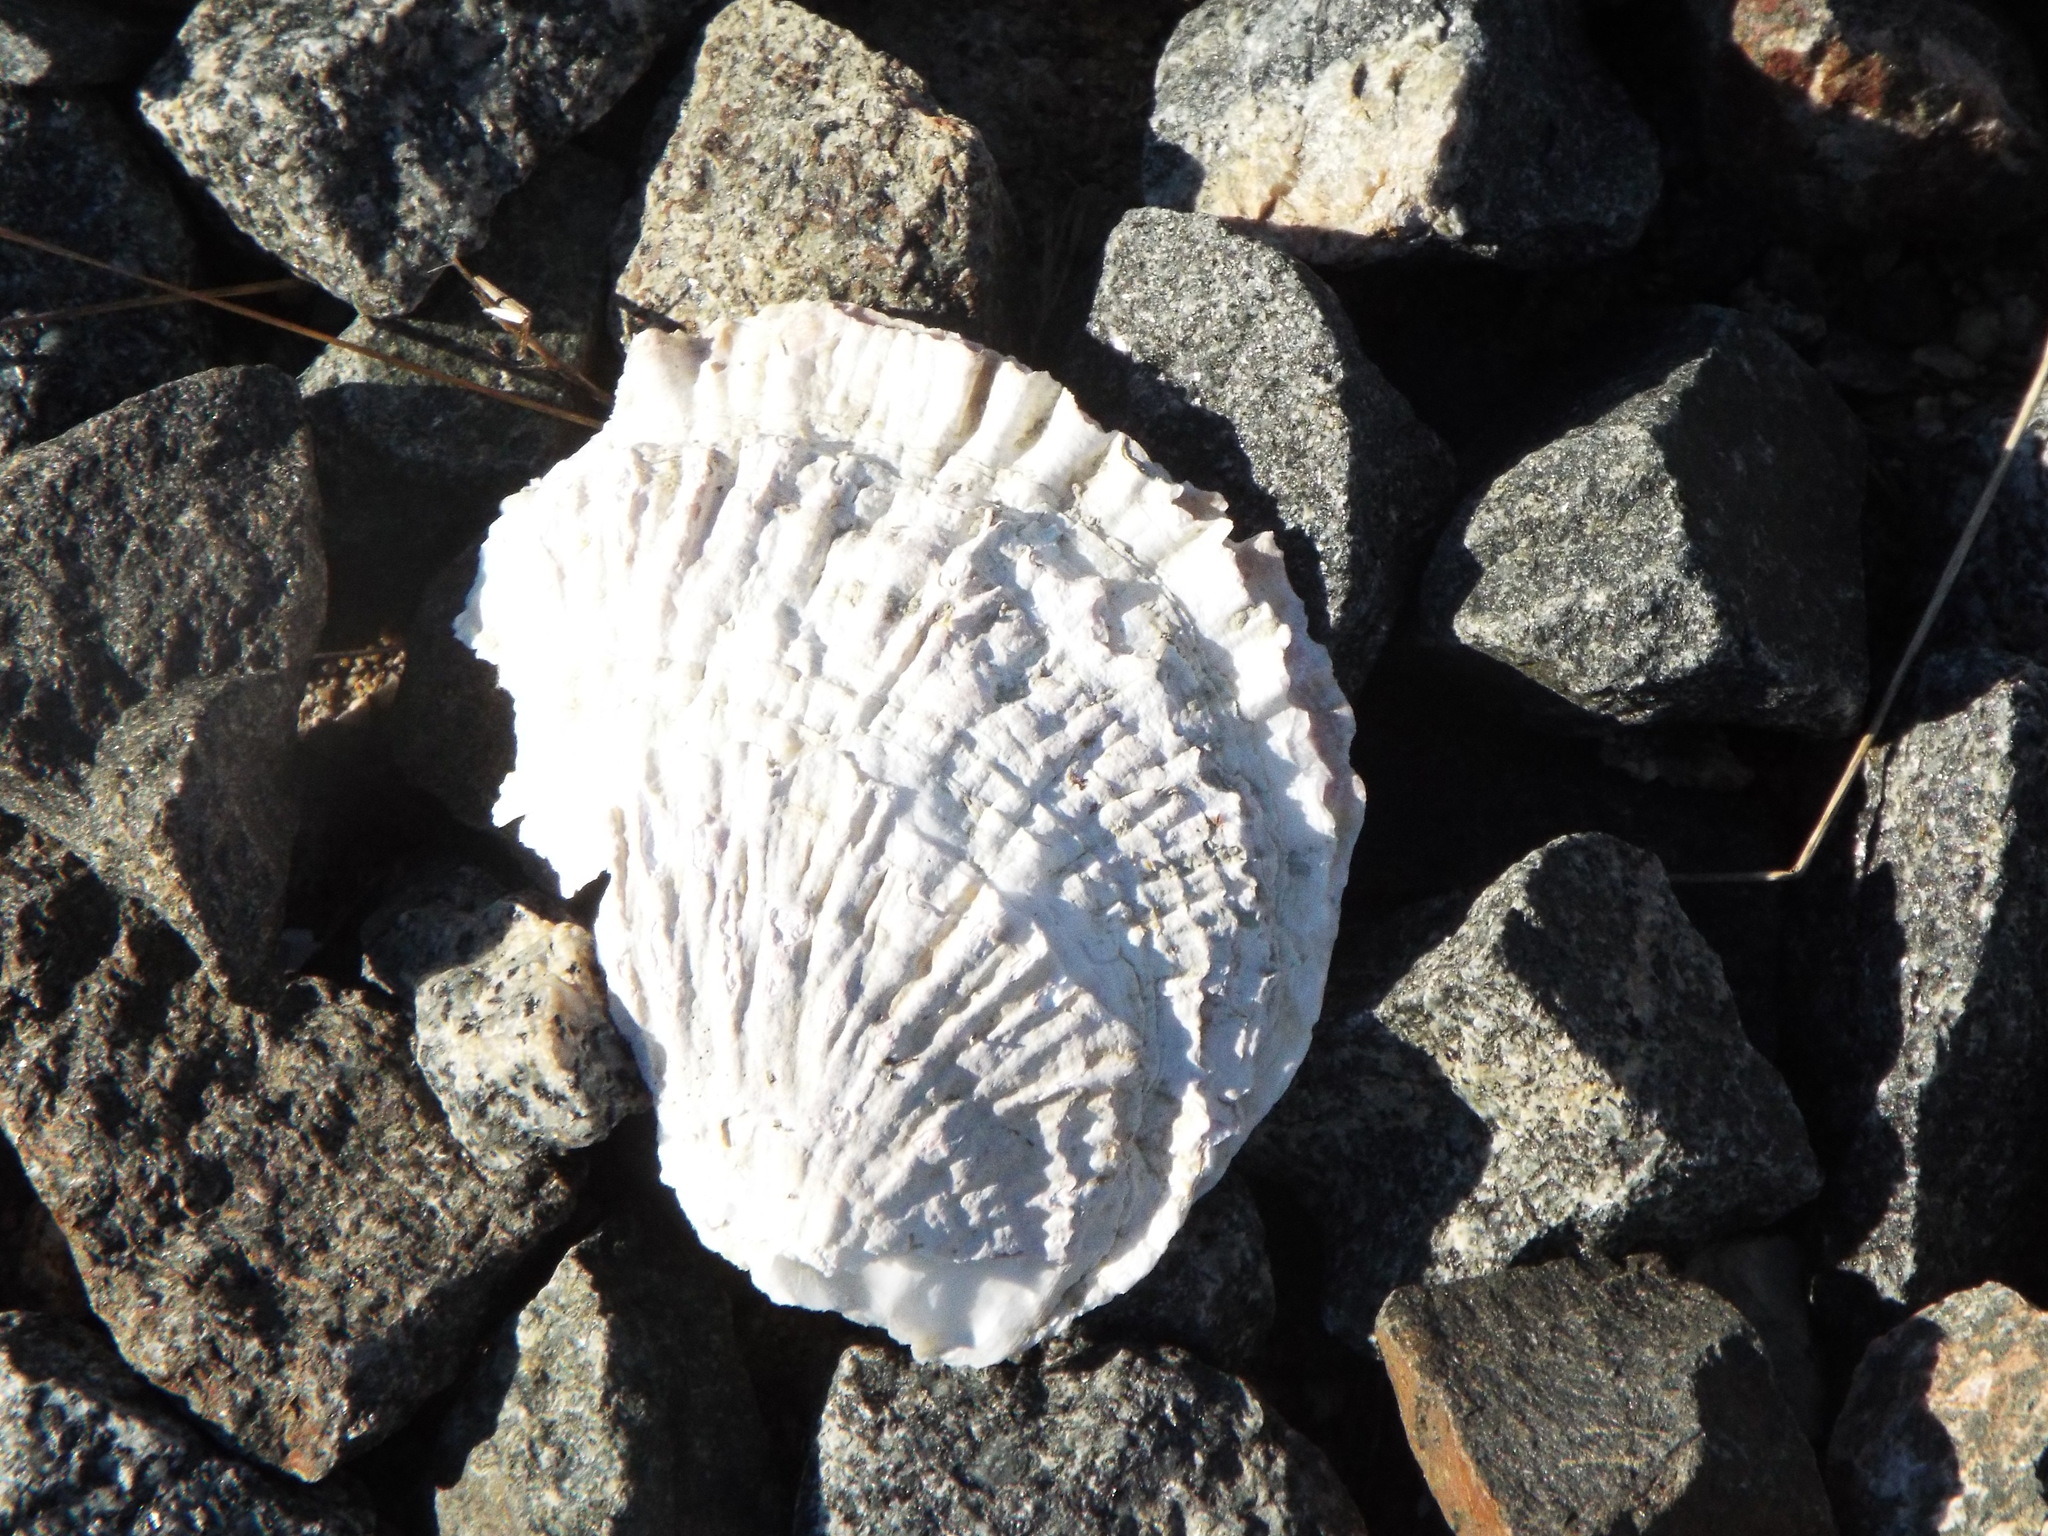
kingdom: Animalia
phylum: Mollusca
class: Bivalvia
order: Ostreida
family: Ostreidae
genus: Ostrea
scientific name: Ostrea edulis
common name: Flat oyster
